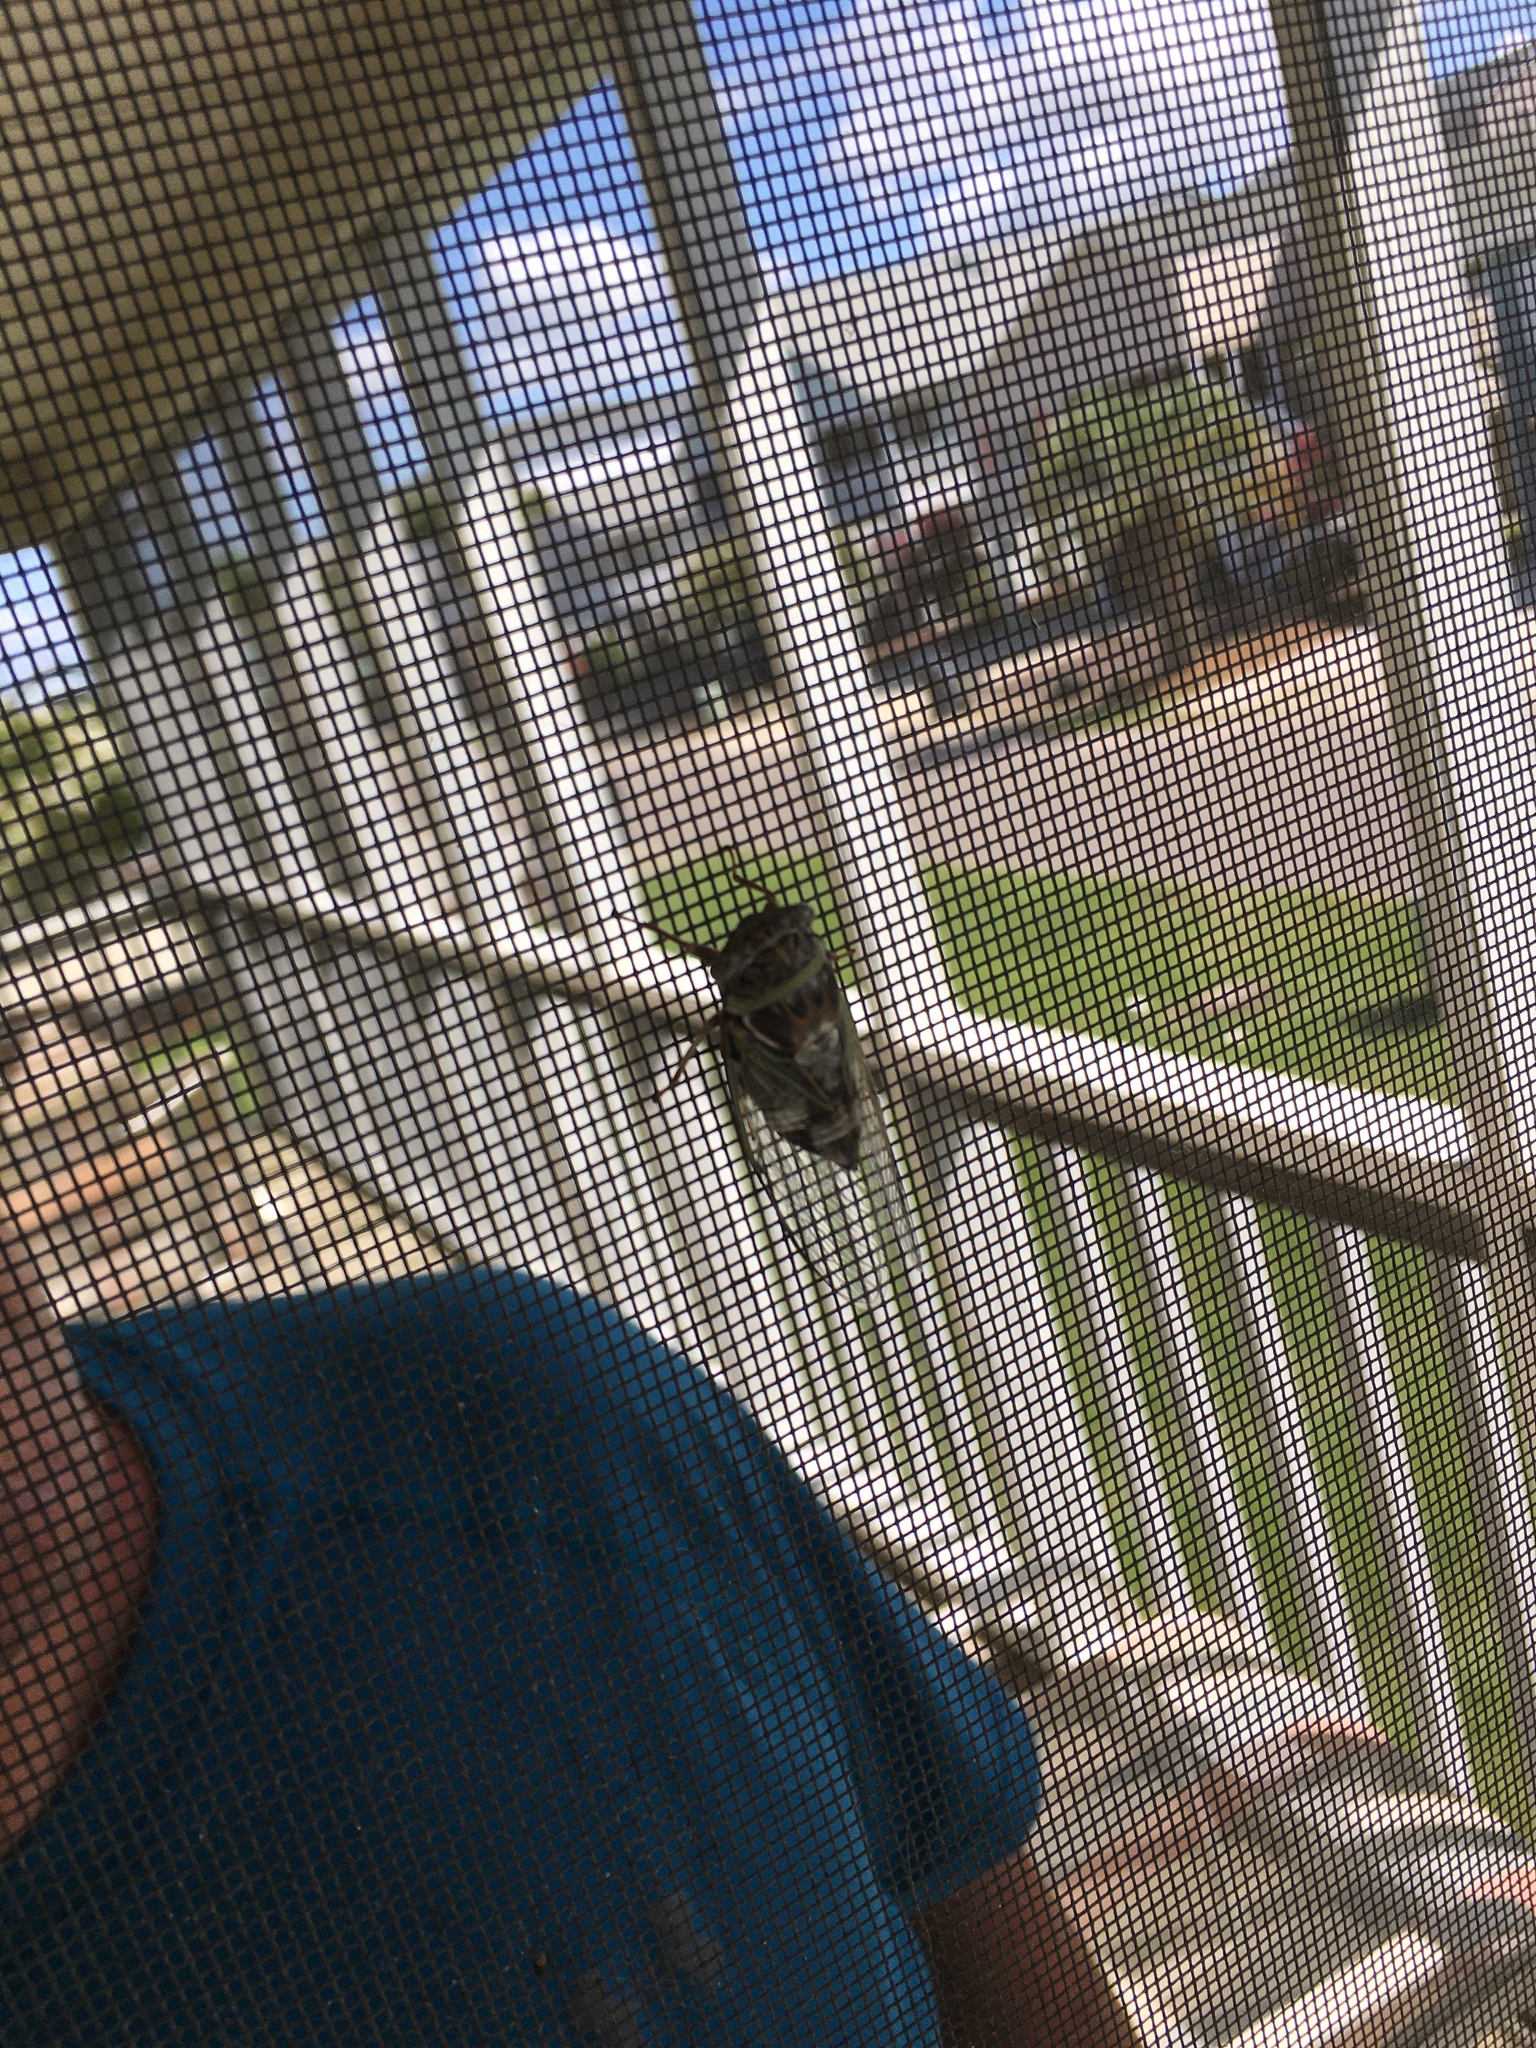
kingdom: Animalia
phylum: Arthropoda
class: Insecta
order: Hemiptera
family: Cicadidae
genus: Diceroprocta
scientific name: Diceroprocta viridifascia
